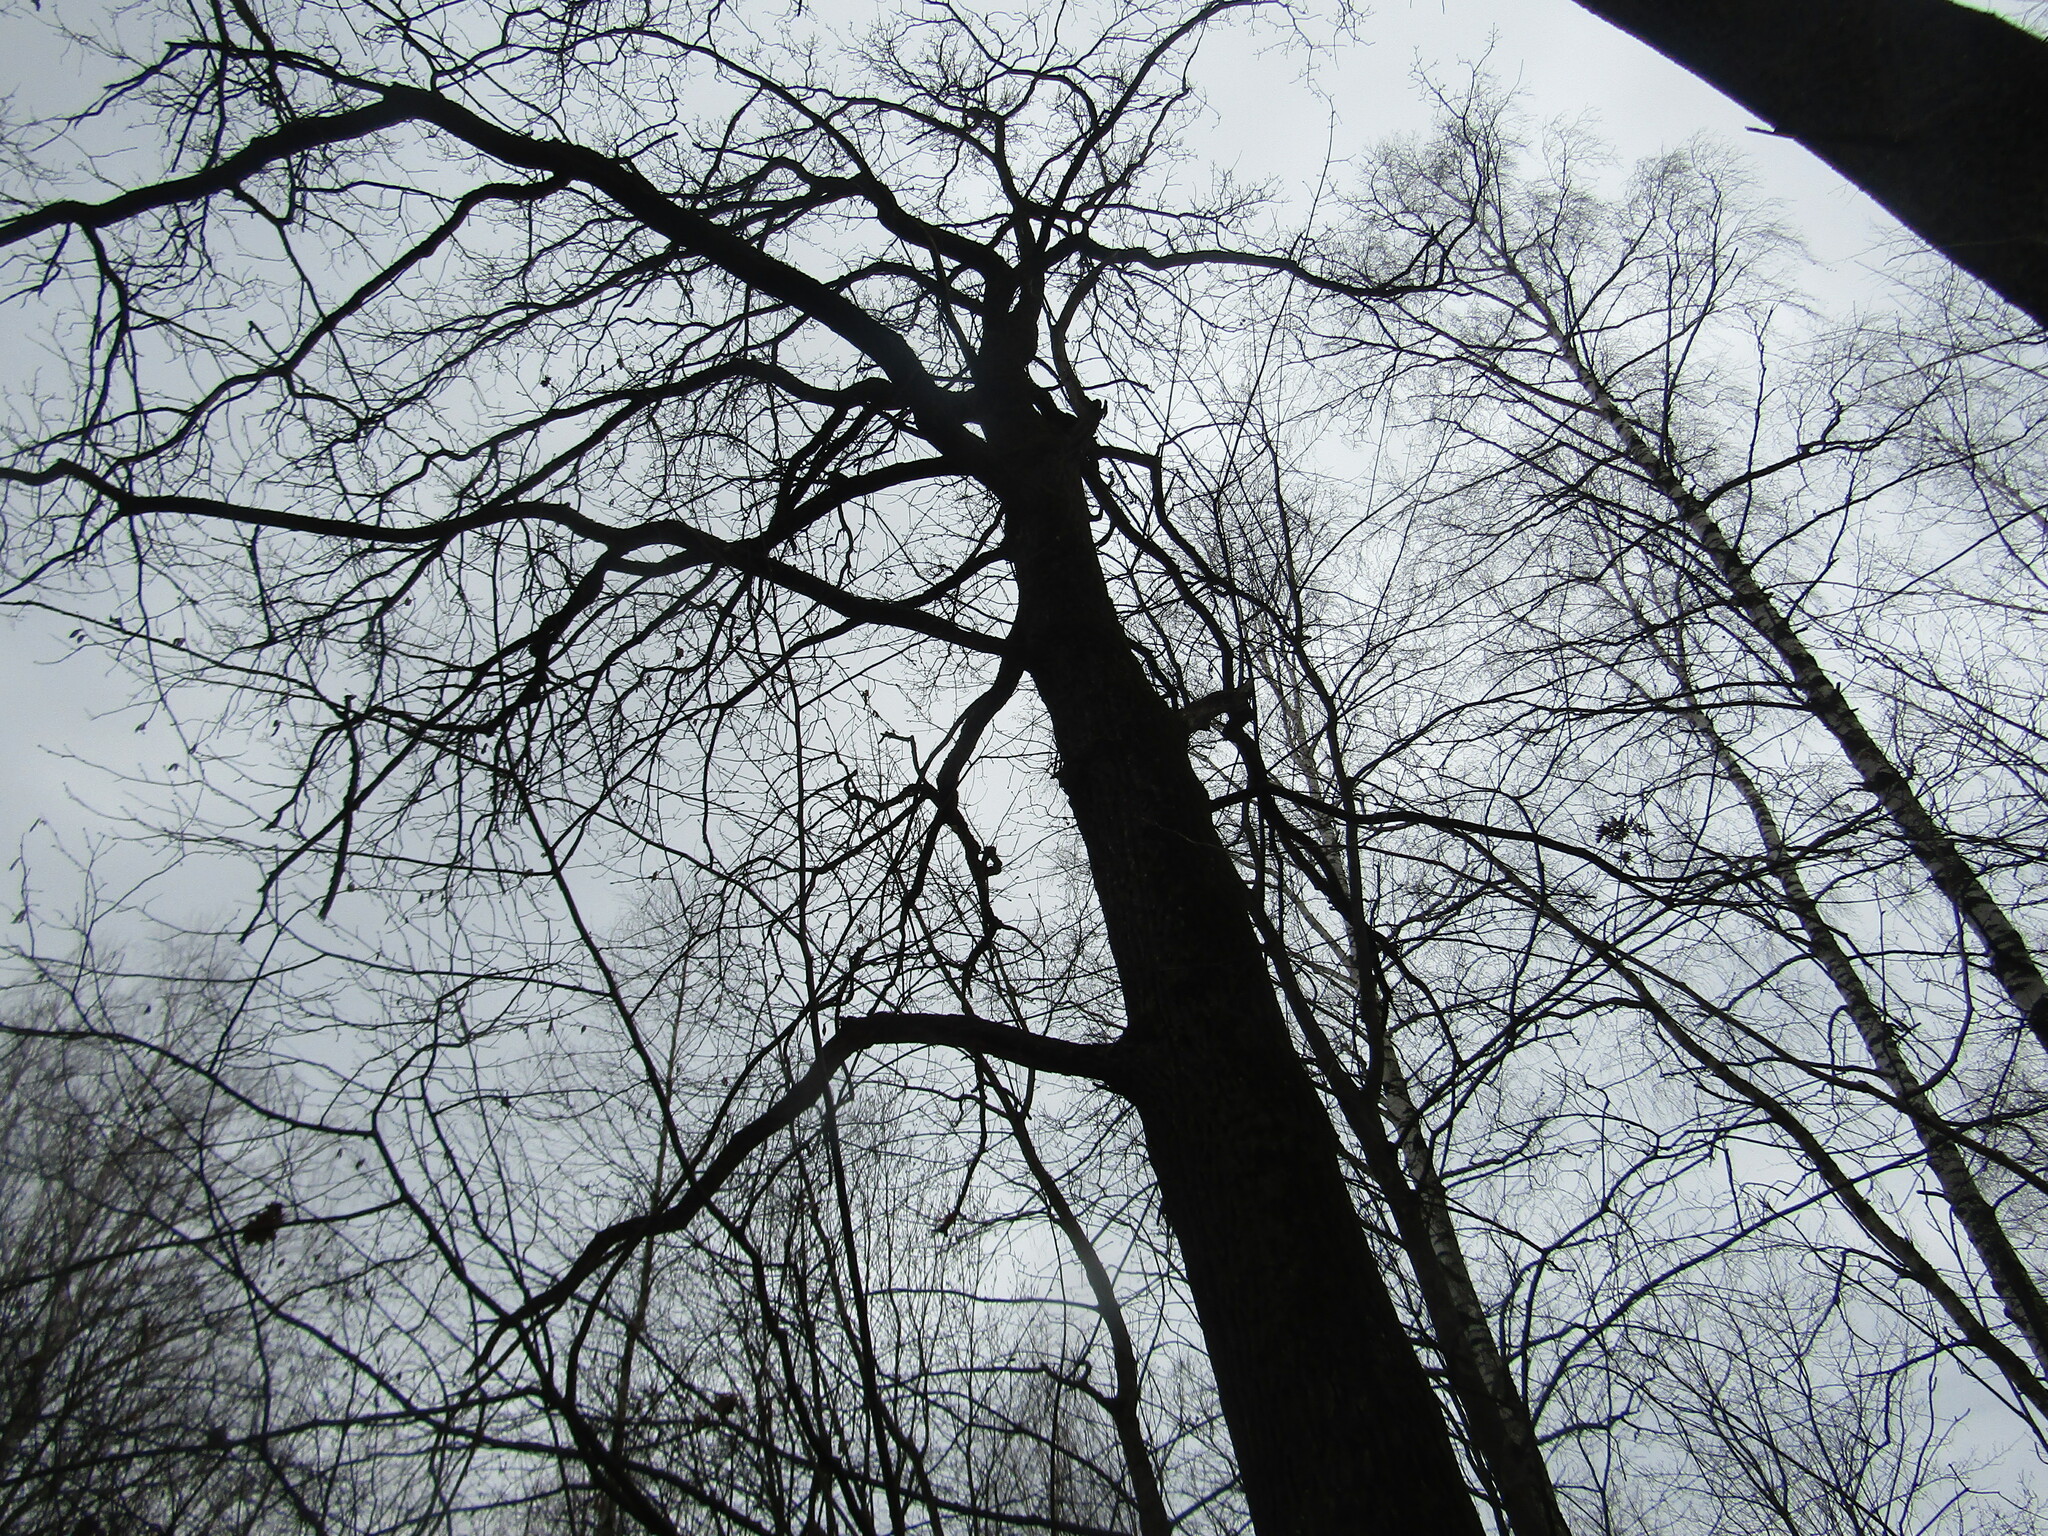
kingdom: Plantae
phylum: Tracheophyta
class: Magnoliopsida
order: Fagales
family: Fagaceae
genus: Quercus
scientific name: Quercus robur
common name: Pedunculate oak
